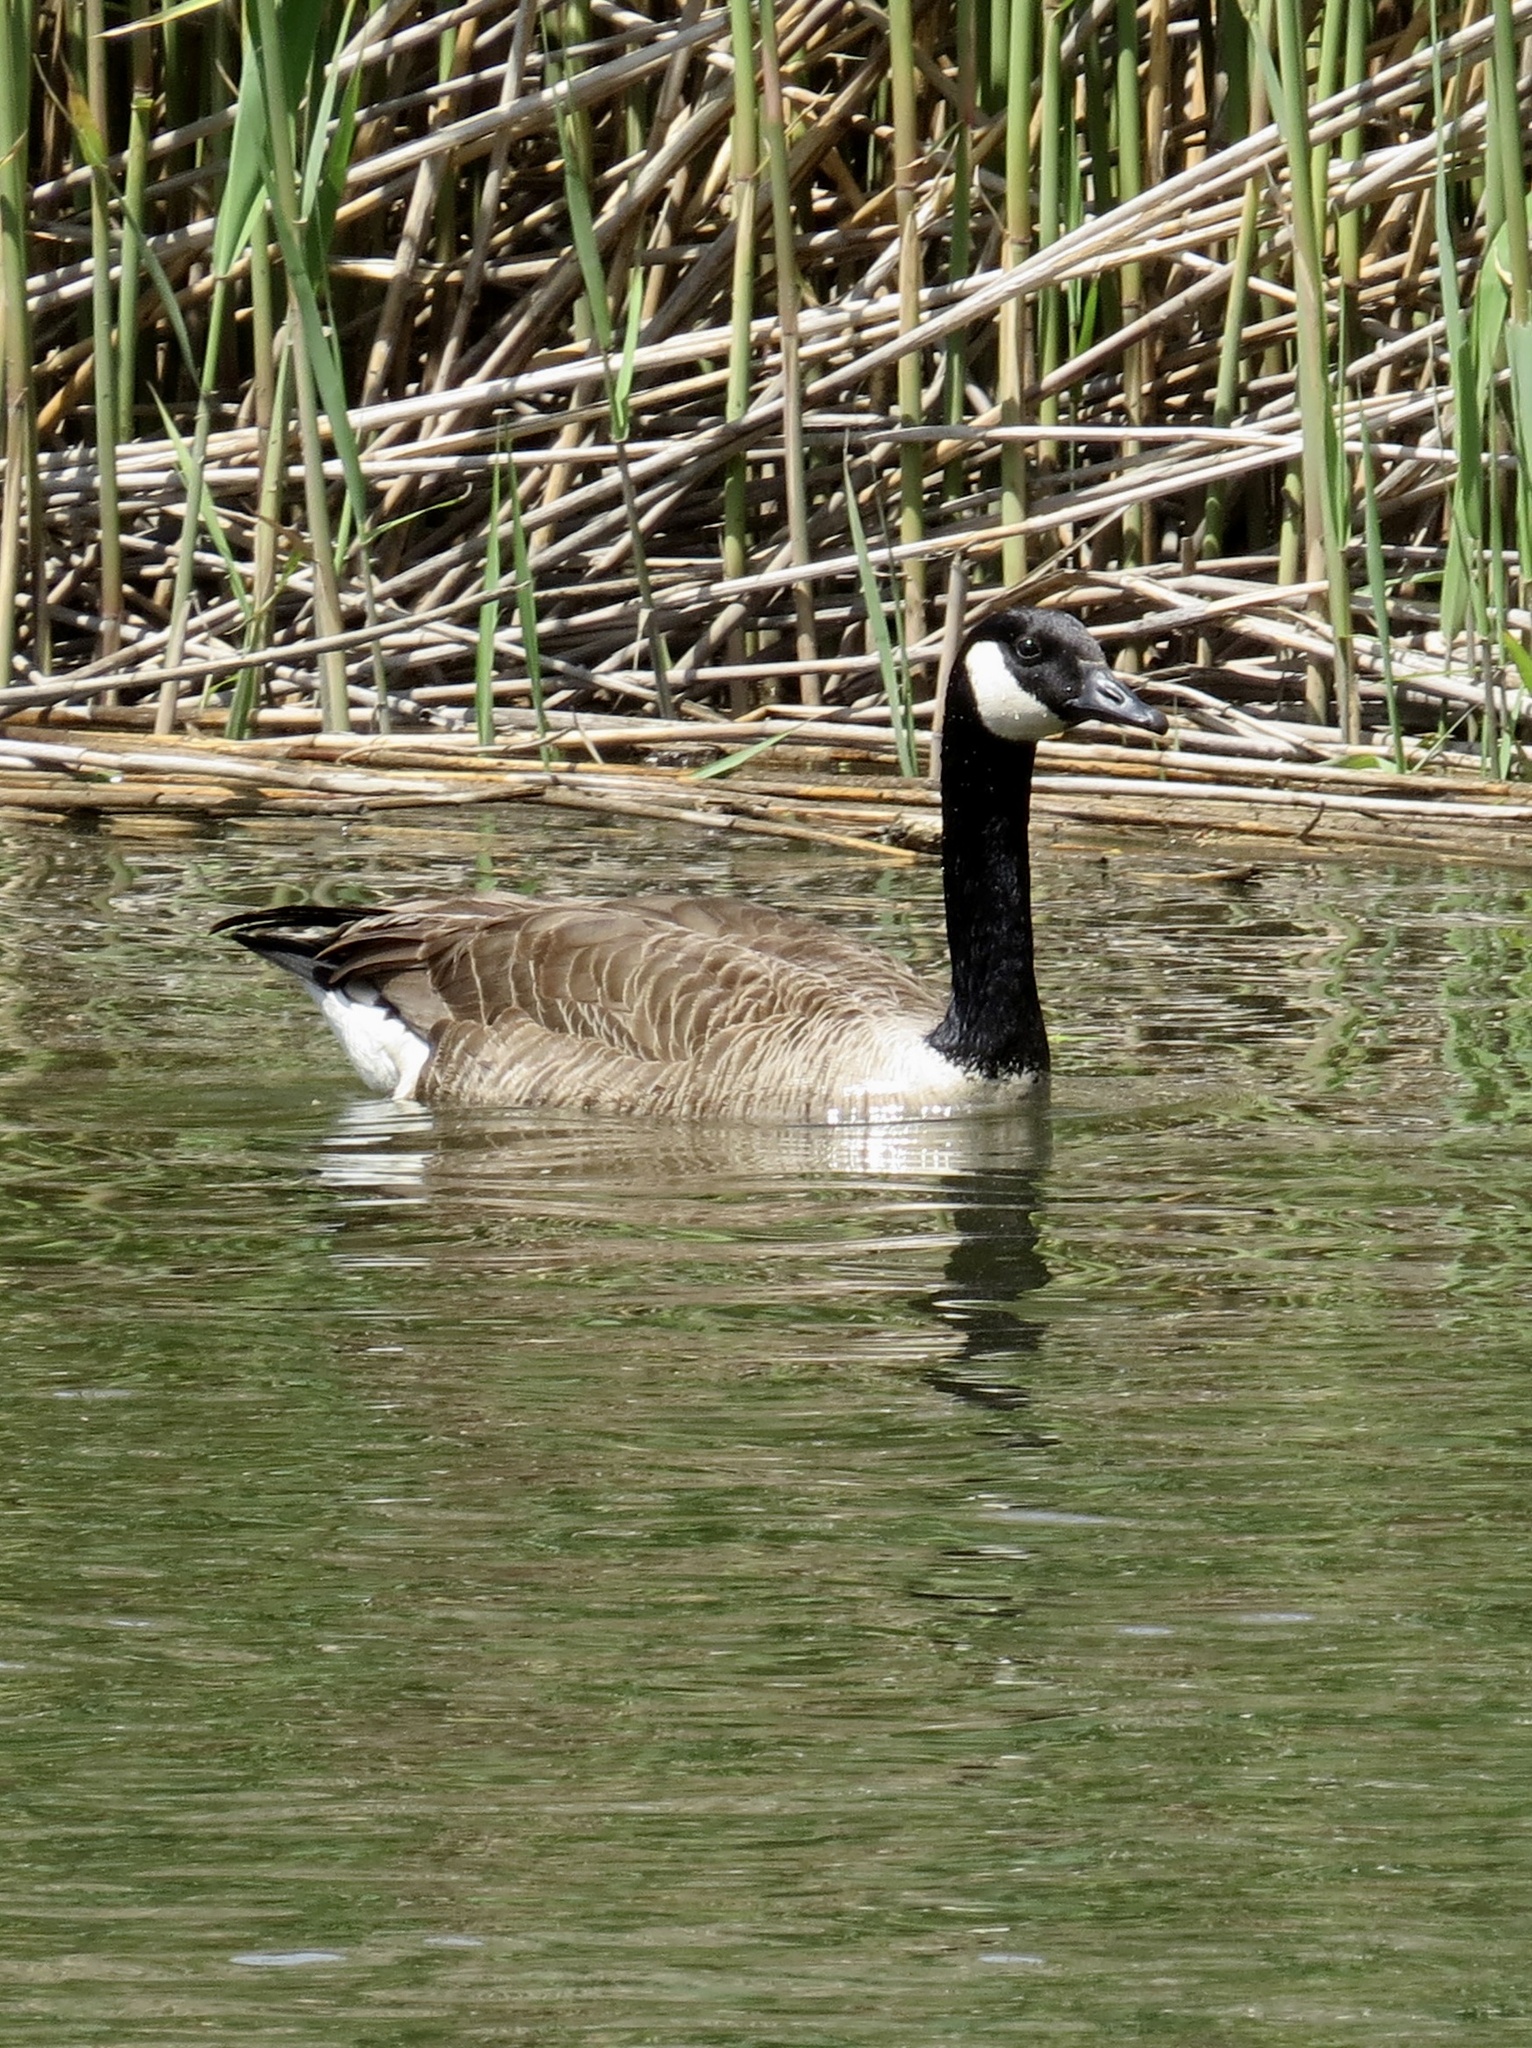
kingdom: Animalia
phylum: Chordata
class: Aves
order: Anseriformes
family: Anatidae
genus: Branta
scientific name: Branta canadensis
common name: Canada goose
